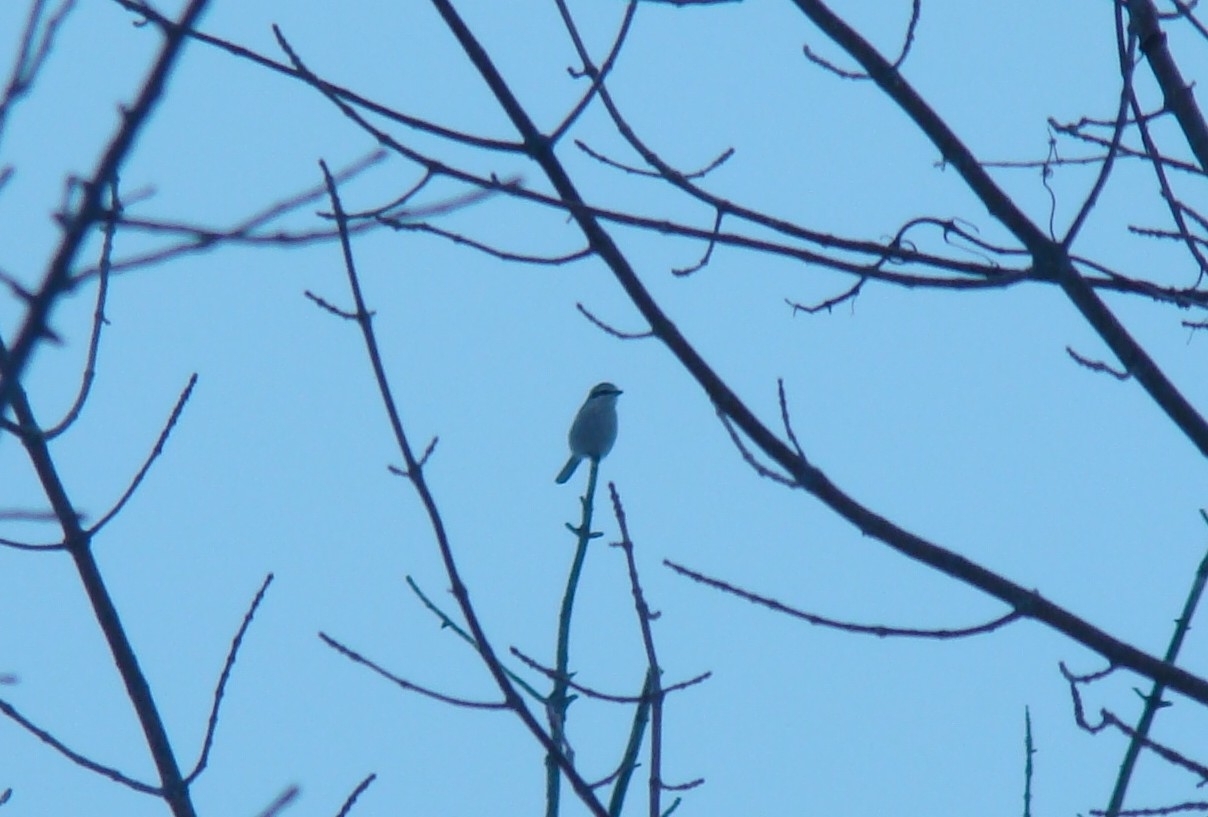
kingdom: Animalia
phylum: Chordata
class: Aves
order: Passeriformes
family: Laniidae
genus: Lanius
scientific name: Lanius borealis
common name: Northern shrike
